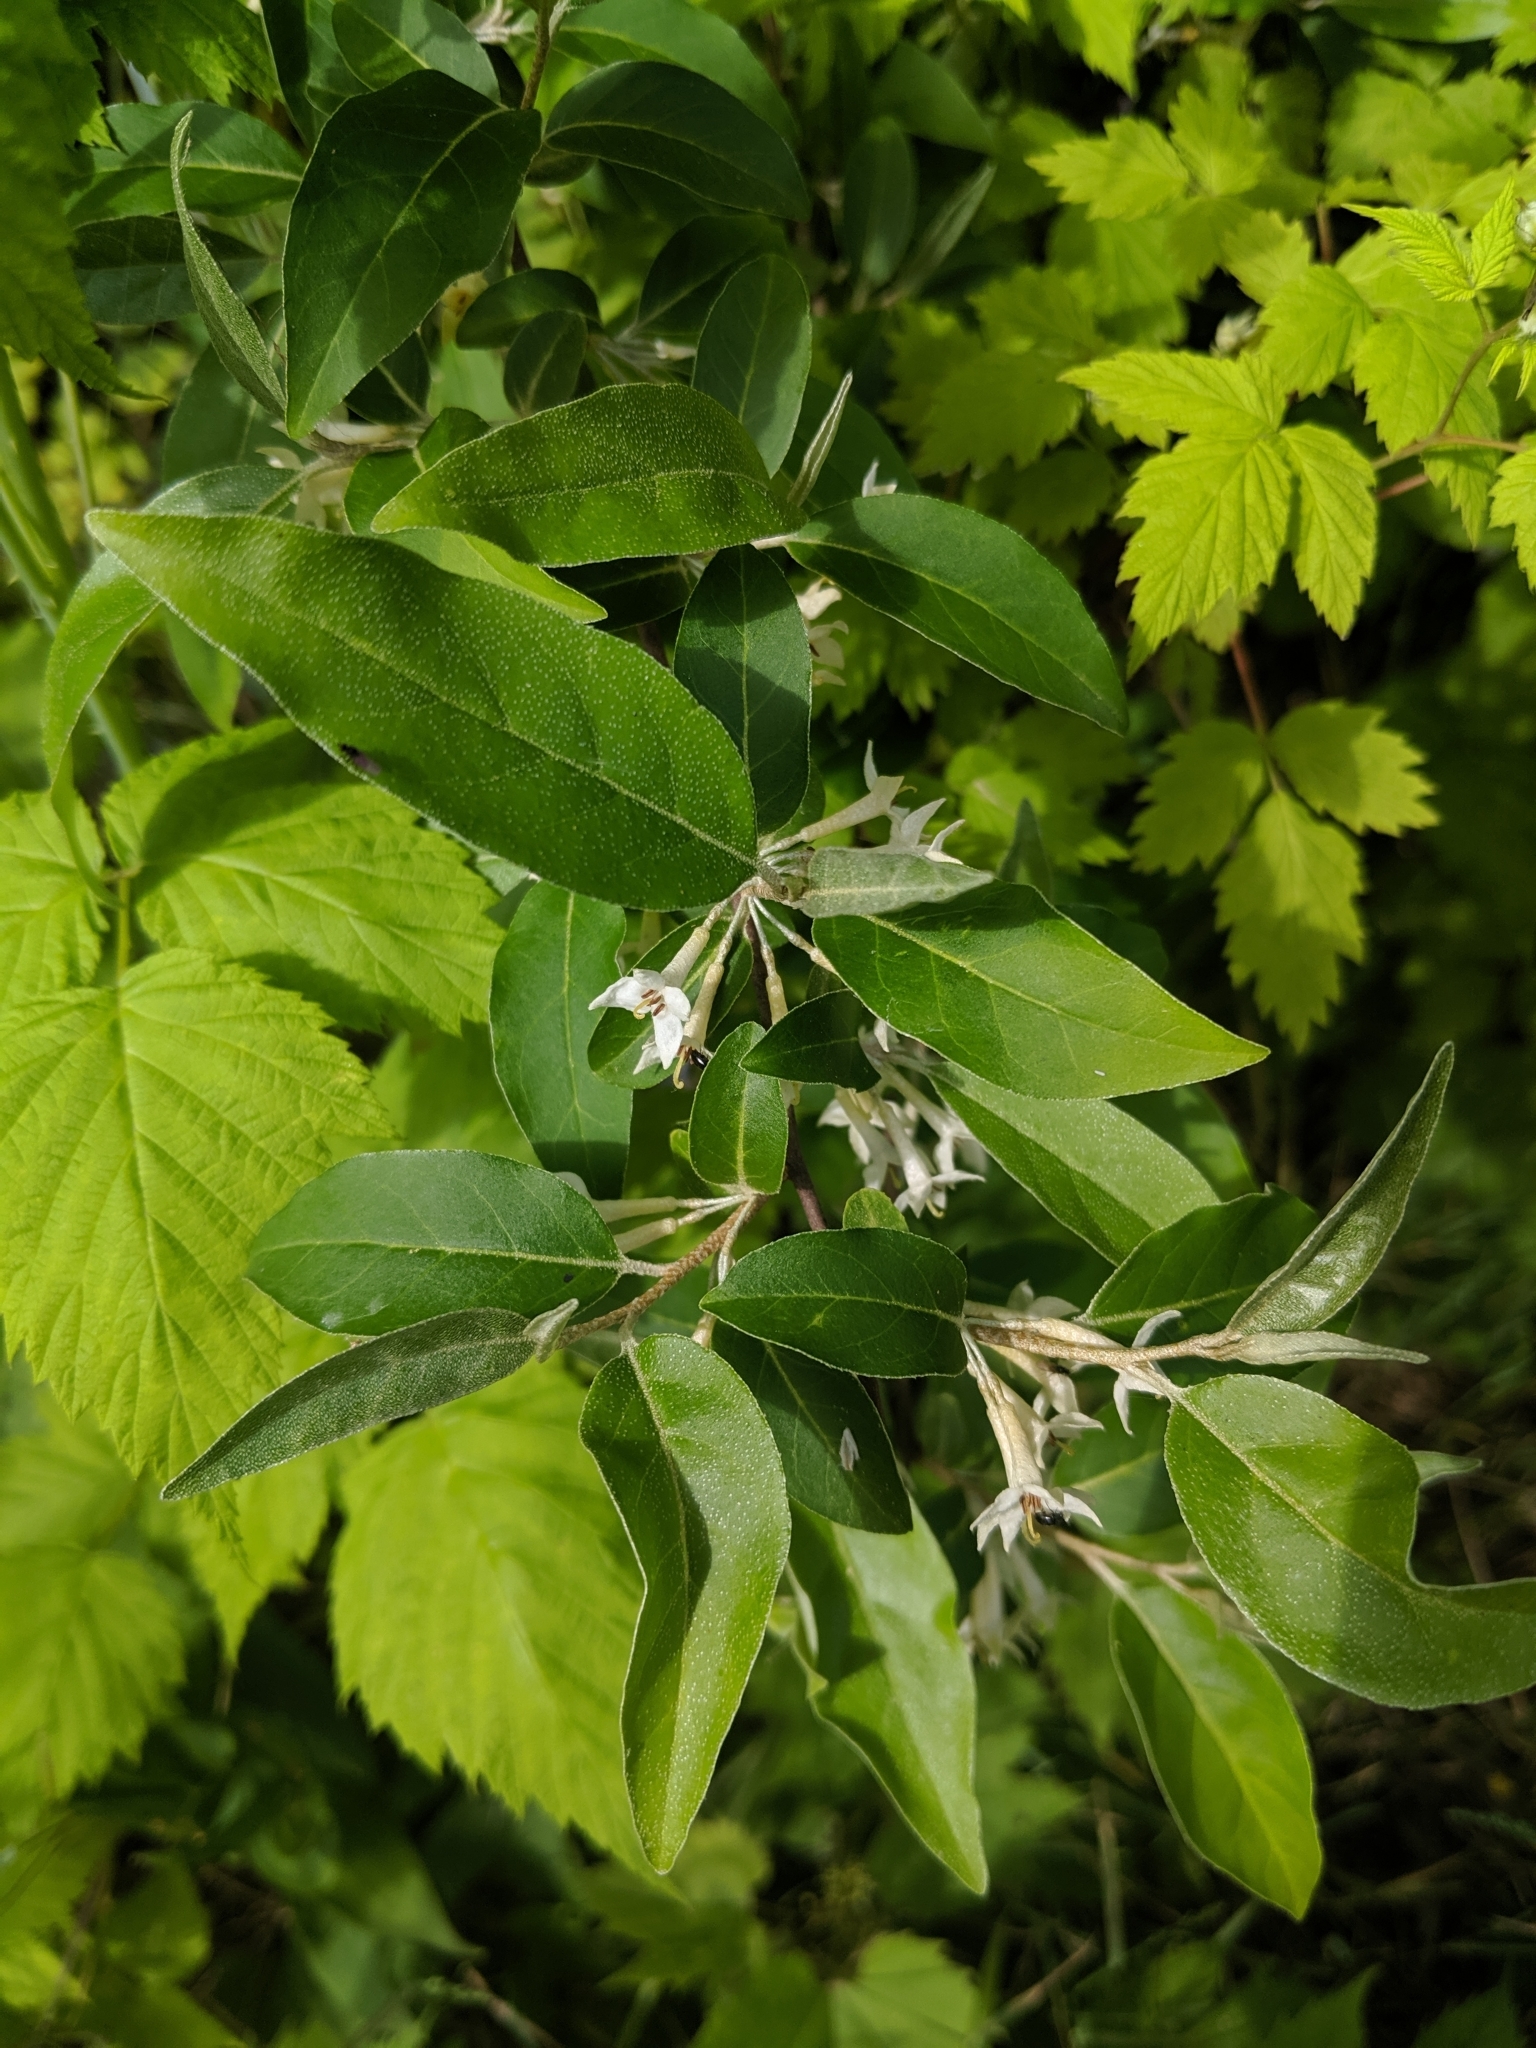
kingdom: Plantae
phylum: Tracheophyta
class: Magnoliopsida
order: Rosales
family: Elaeagnaceae
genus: Elaeagnus
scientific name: Elaeagnus umbellata
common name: Autumn olive
